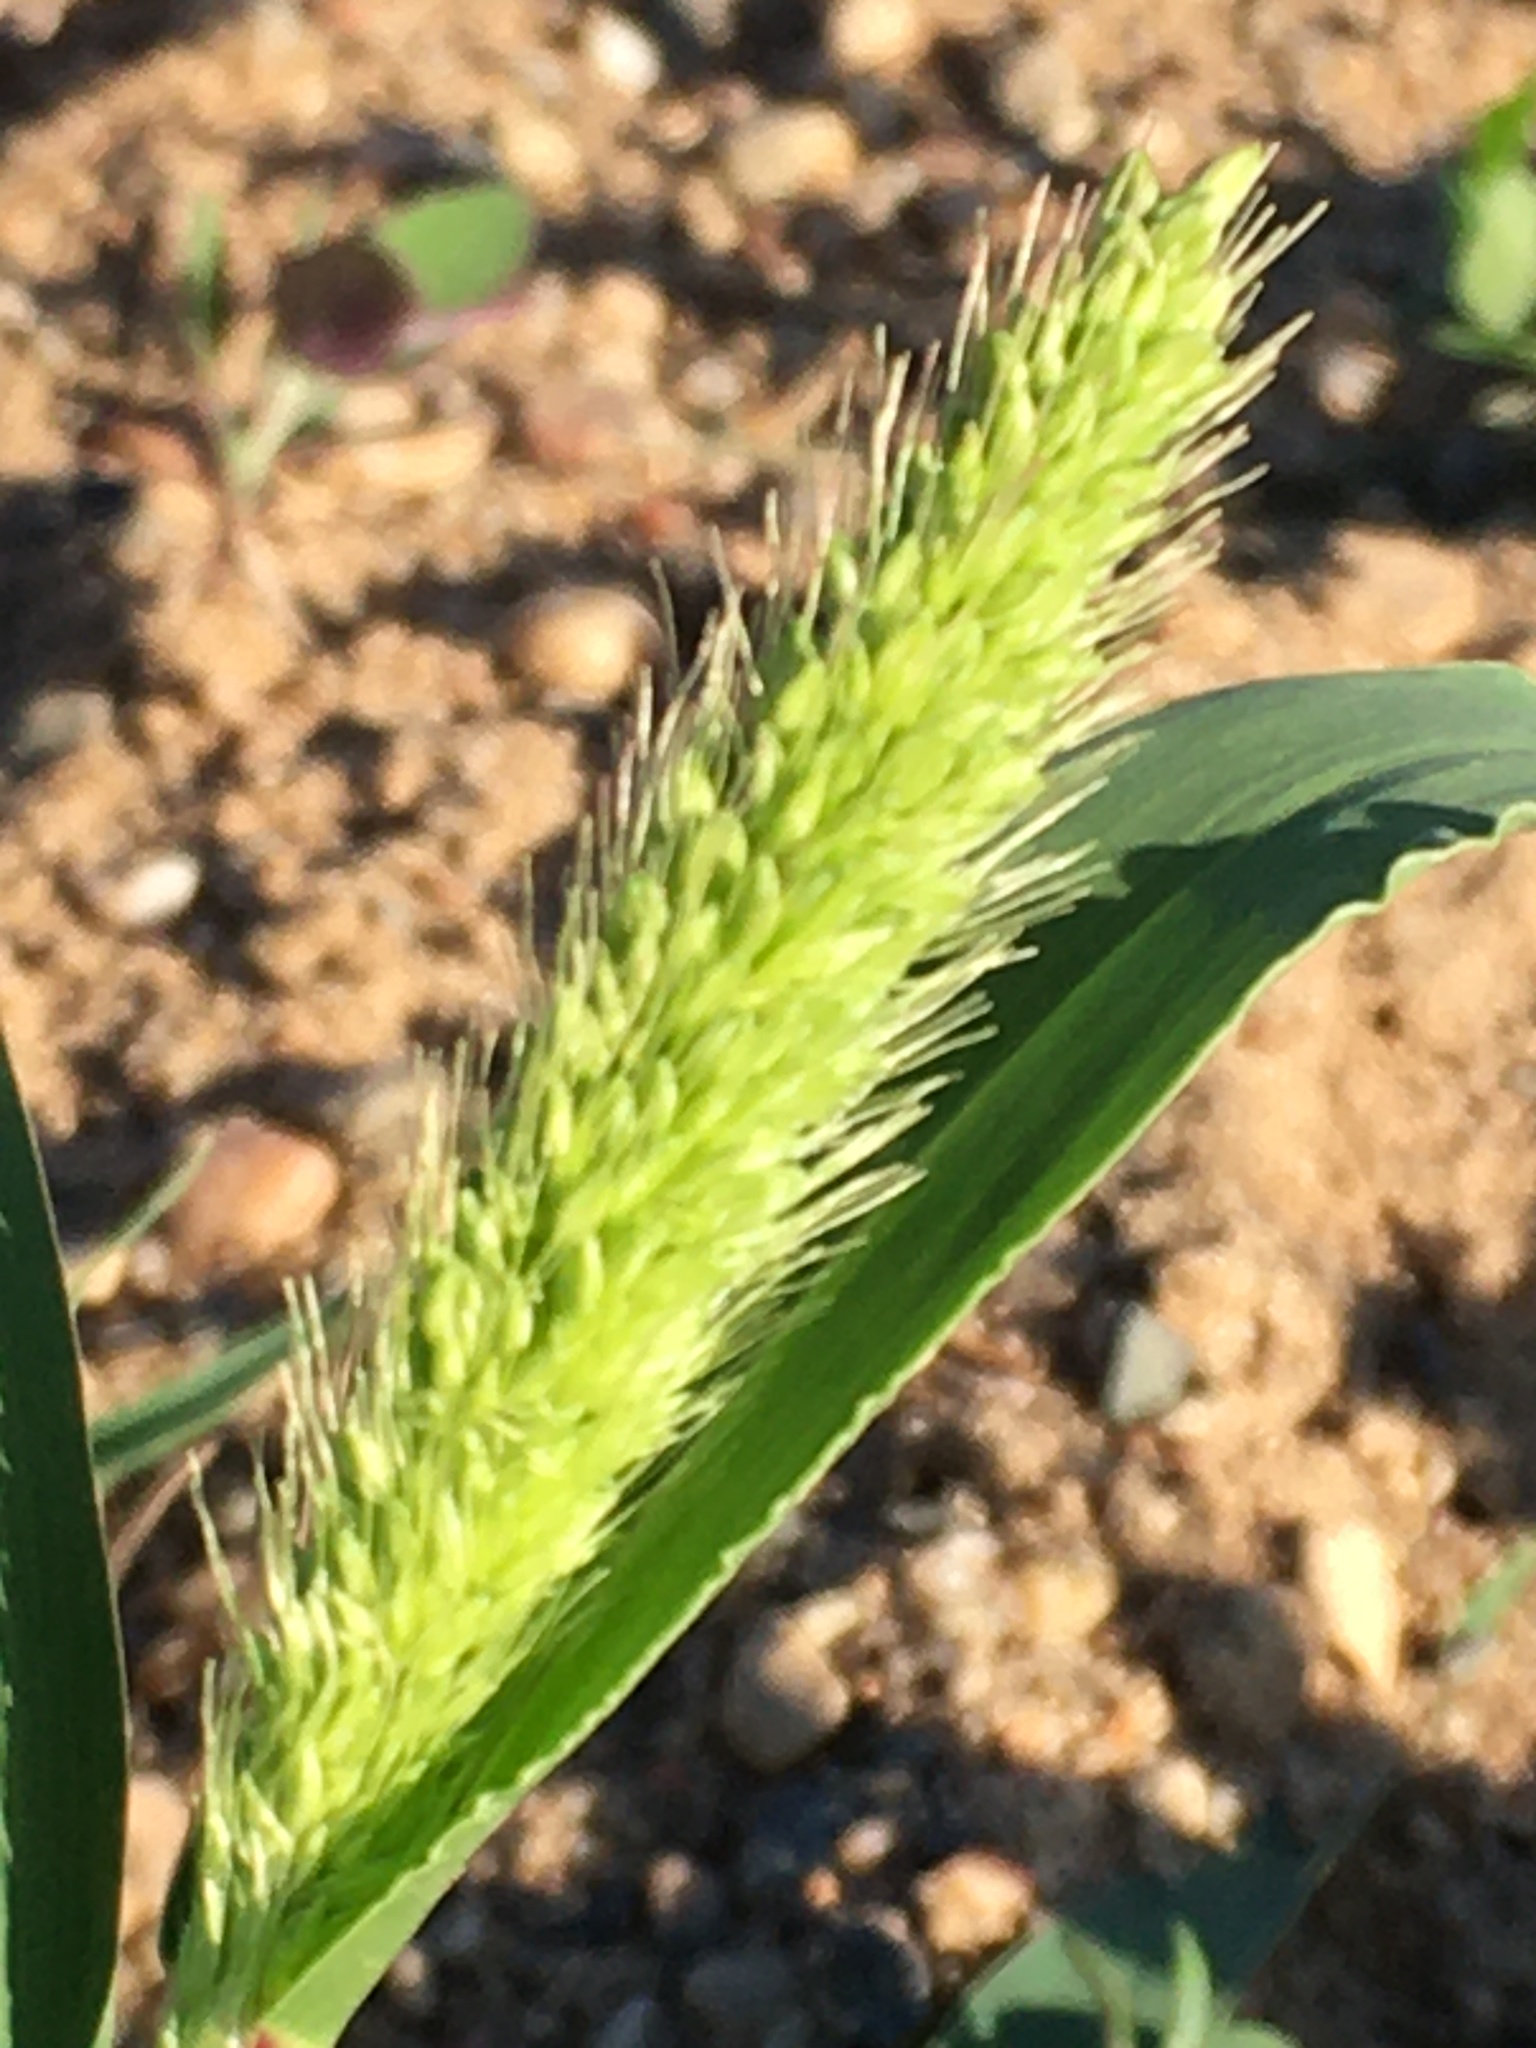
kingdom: Plantae
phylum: Tracheophyta
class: Liliopsida
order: Poales
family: Poaceae
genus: Setaria
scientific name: Setaria viridis
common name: Green bristlegrass
